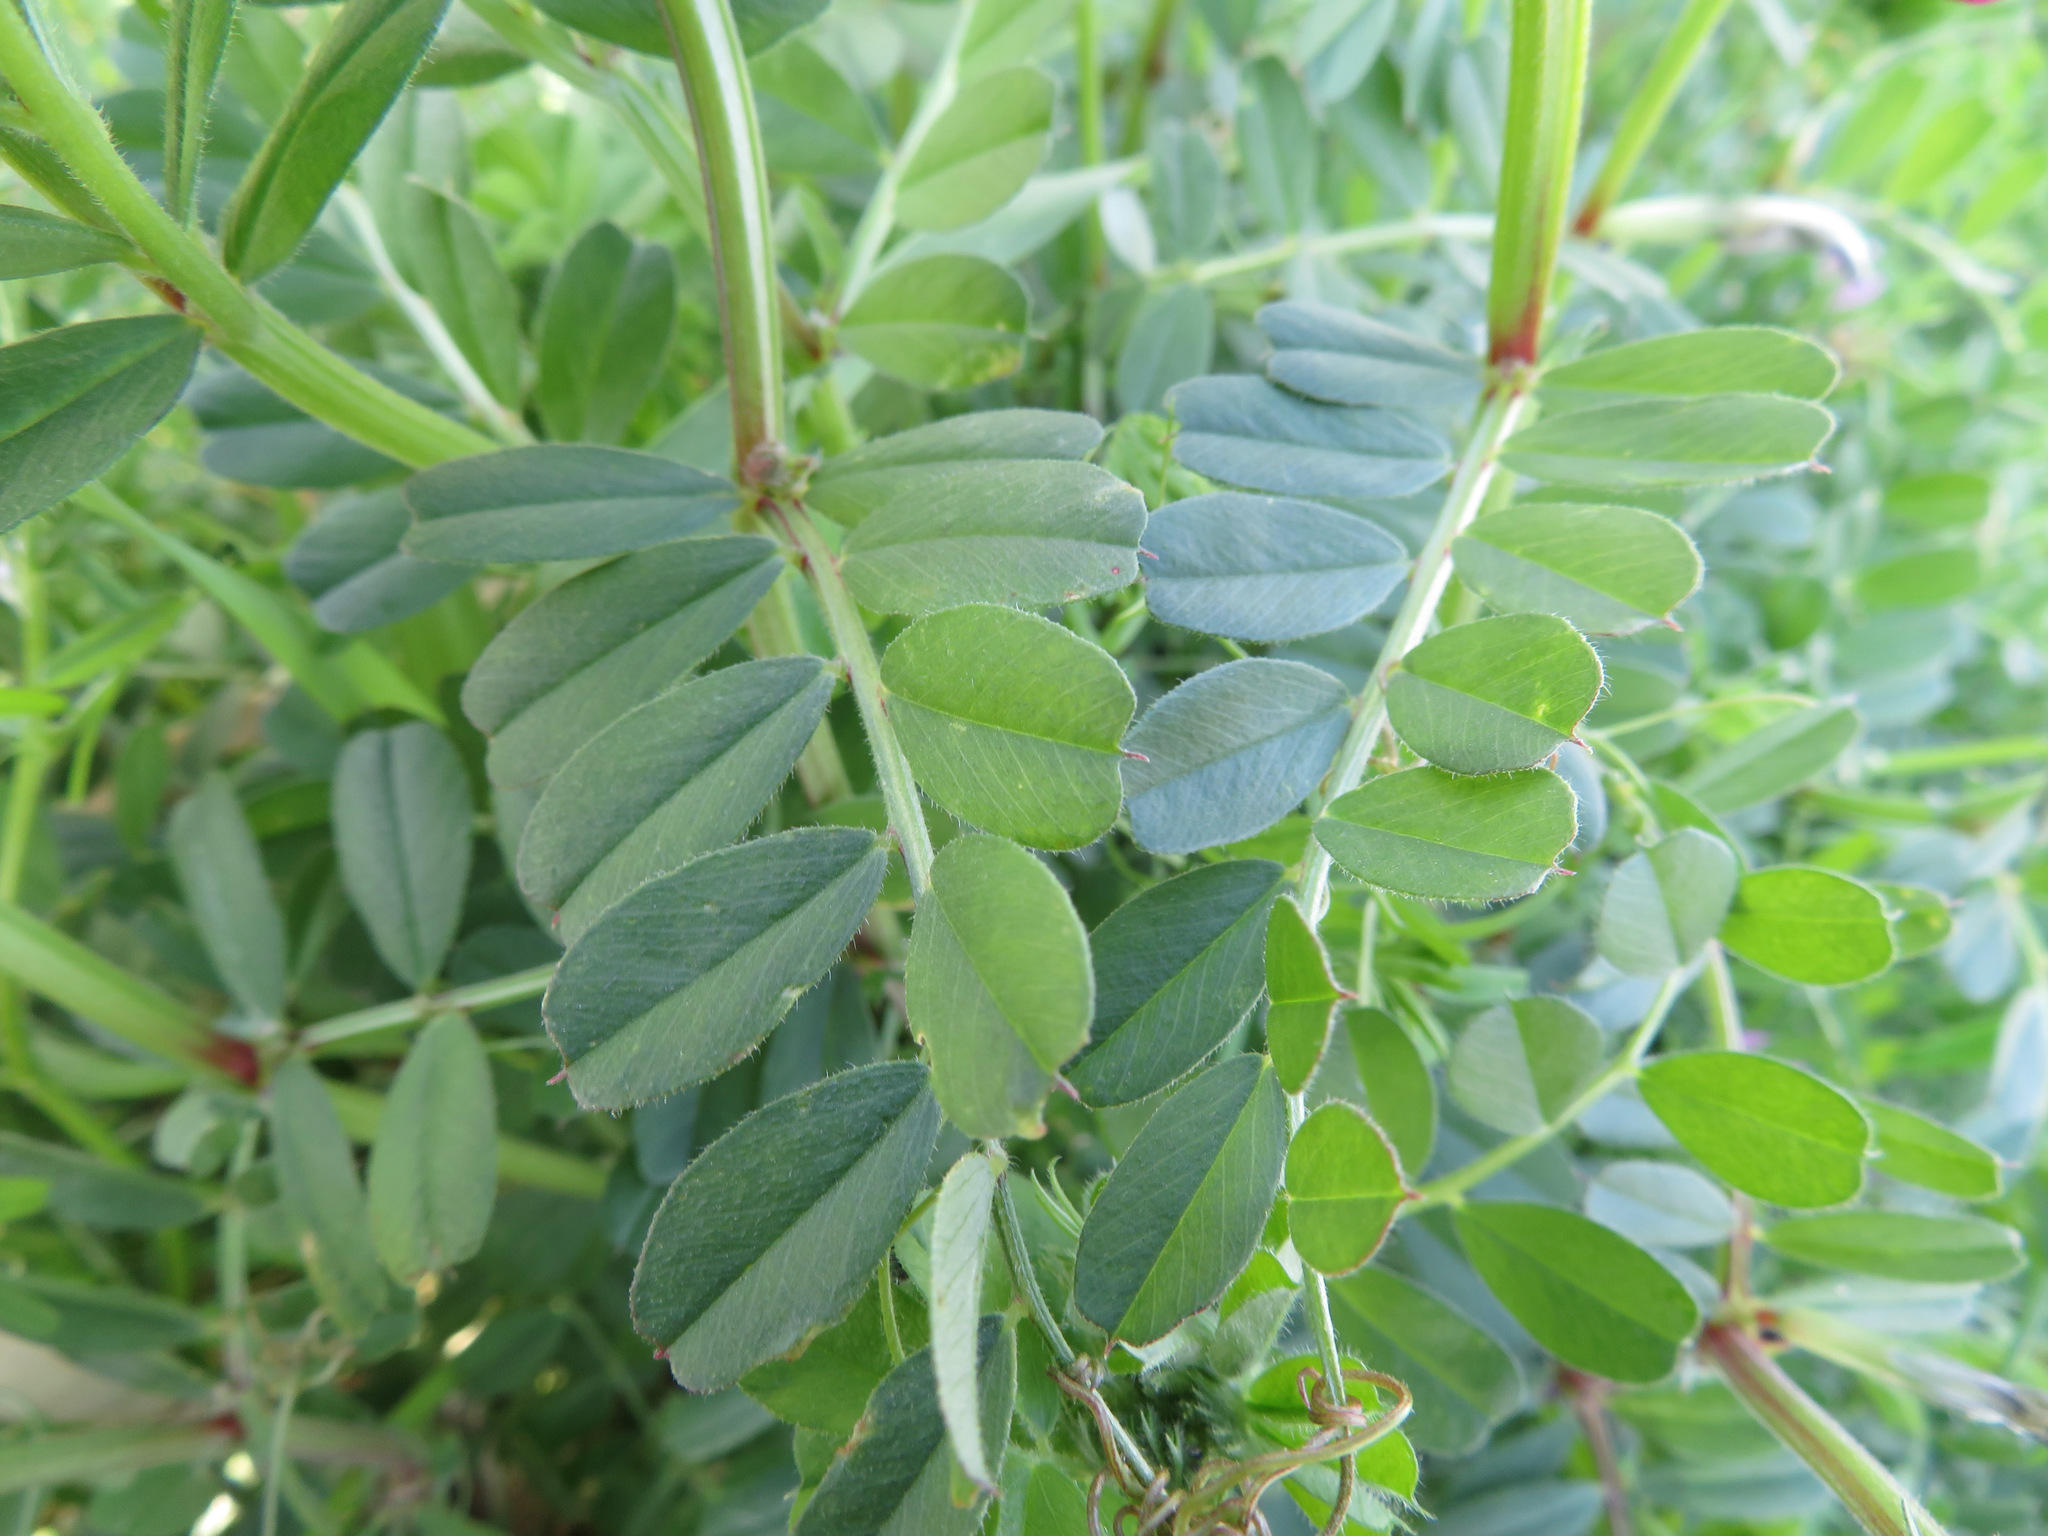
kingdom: Plantae
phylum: Tracheophyta
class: Magnoliopsida
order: Fabales
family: Fabaceae
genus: Vicia
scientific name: Vicia sativa
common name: Garden vetch
